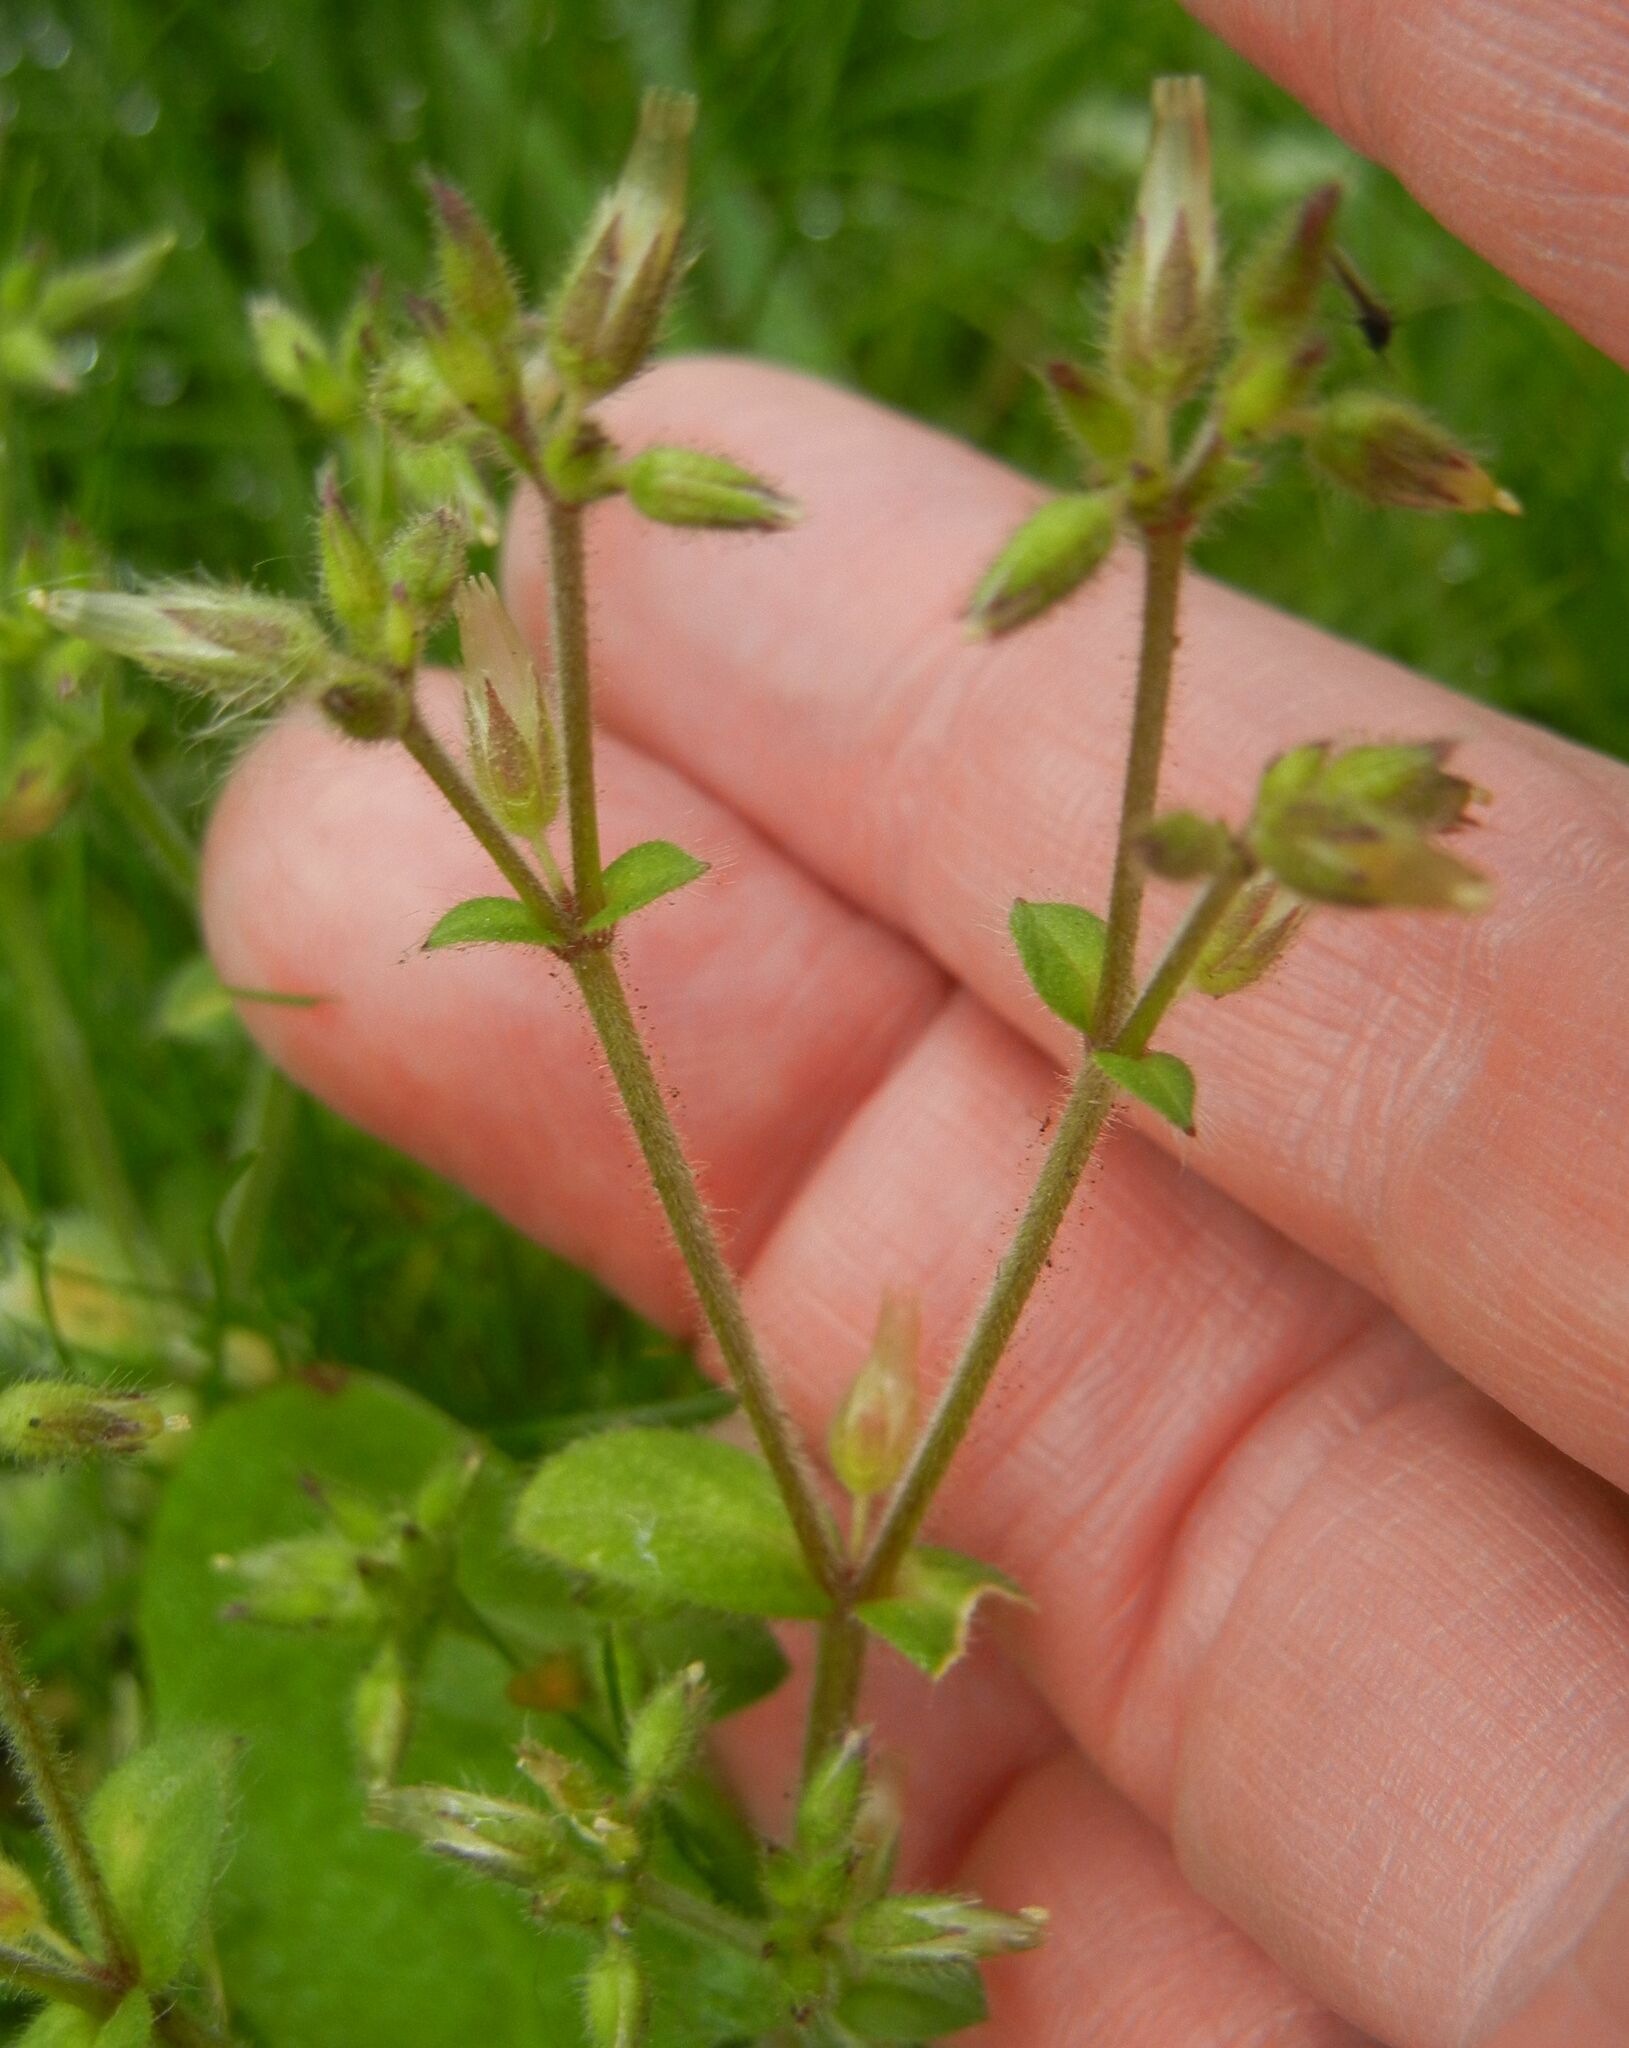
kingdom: Plantae
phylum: Tracheophyta
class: Magnoliopsida
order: Caryophyllales
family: Caryophyllaceae
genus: Cerastium
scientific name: Cerastium glomeratum
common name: Sticky chickweed
